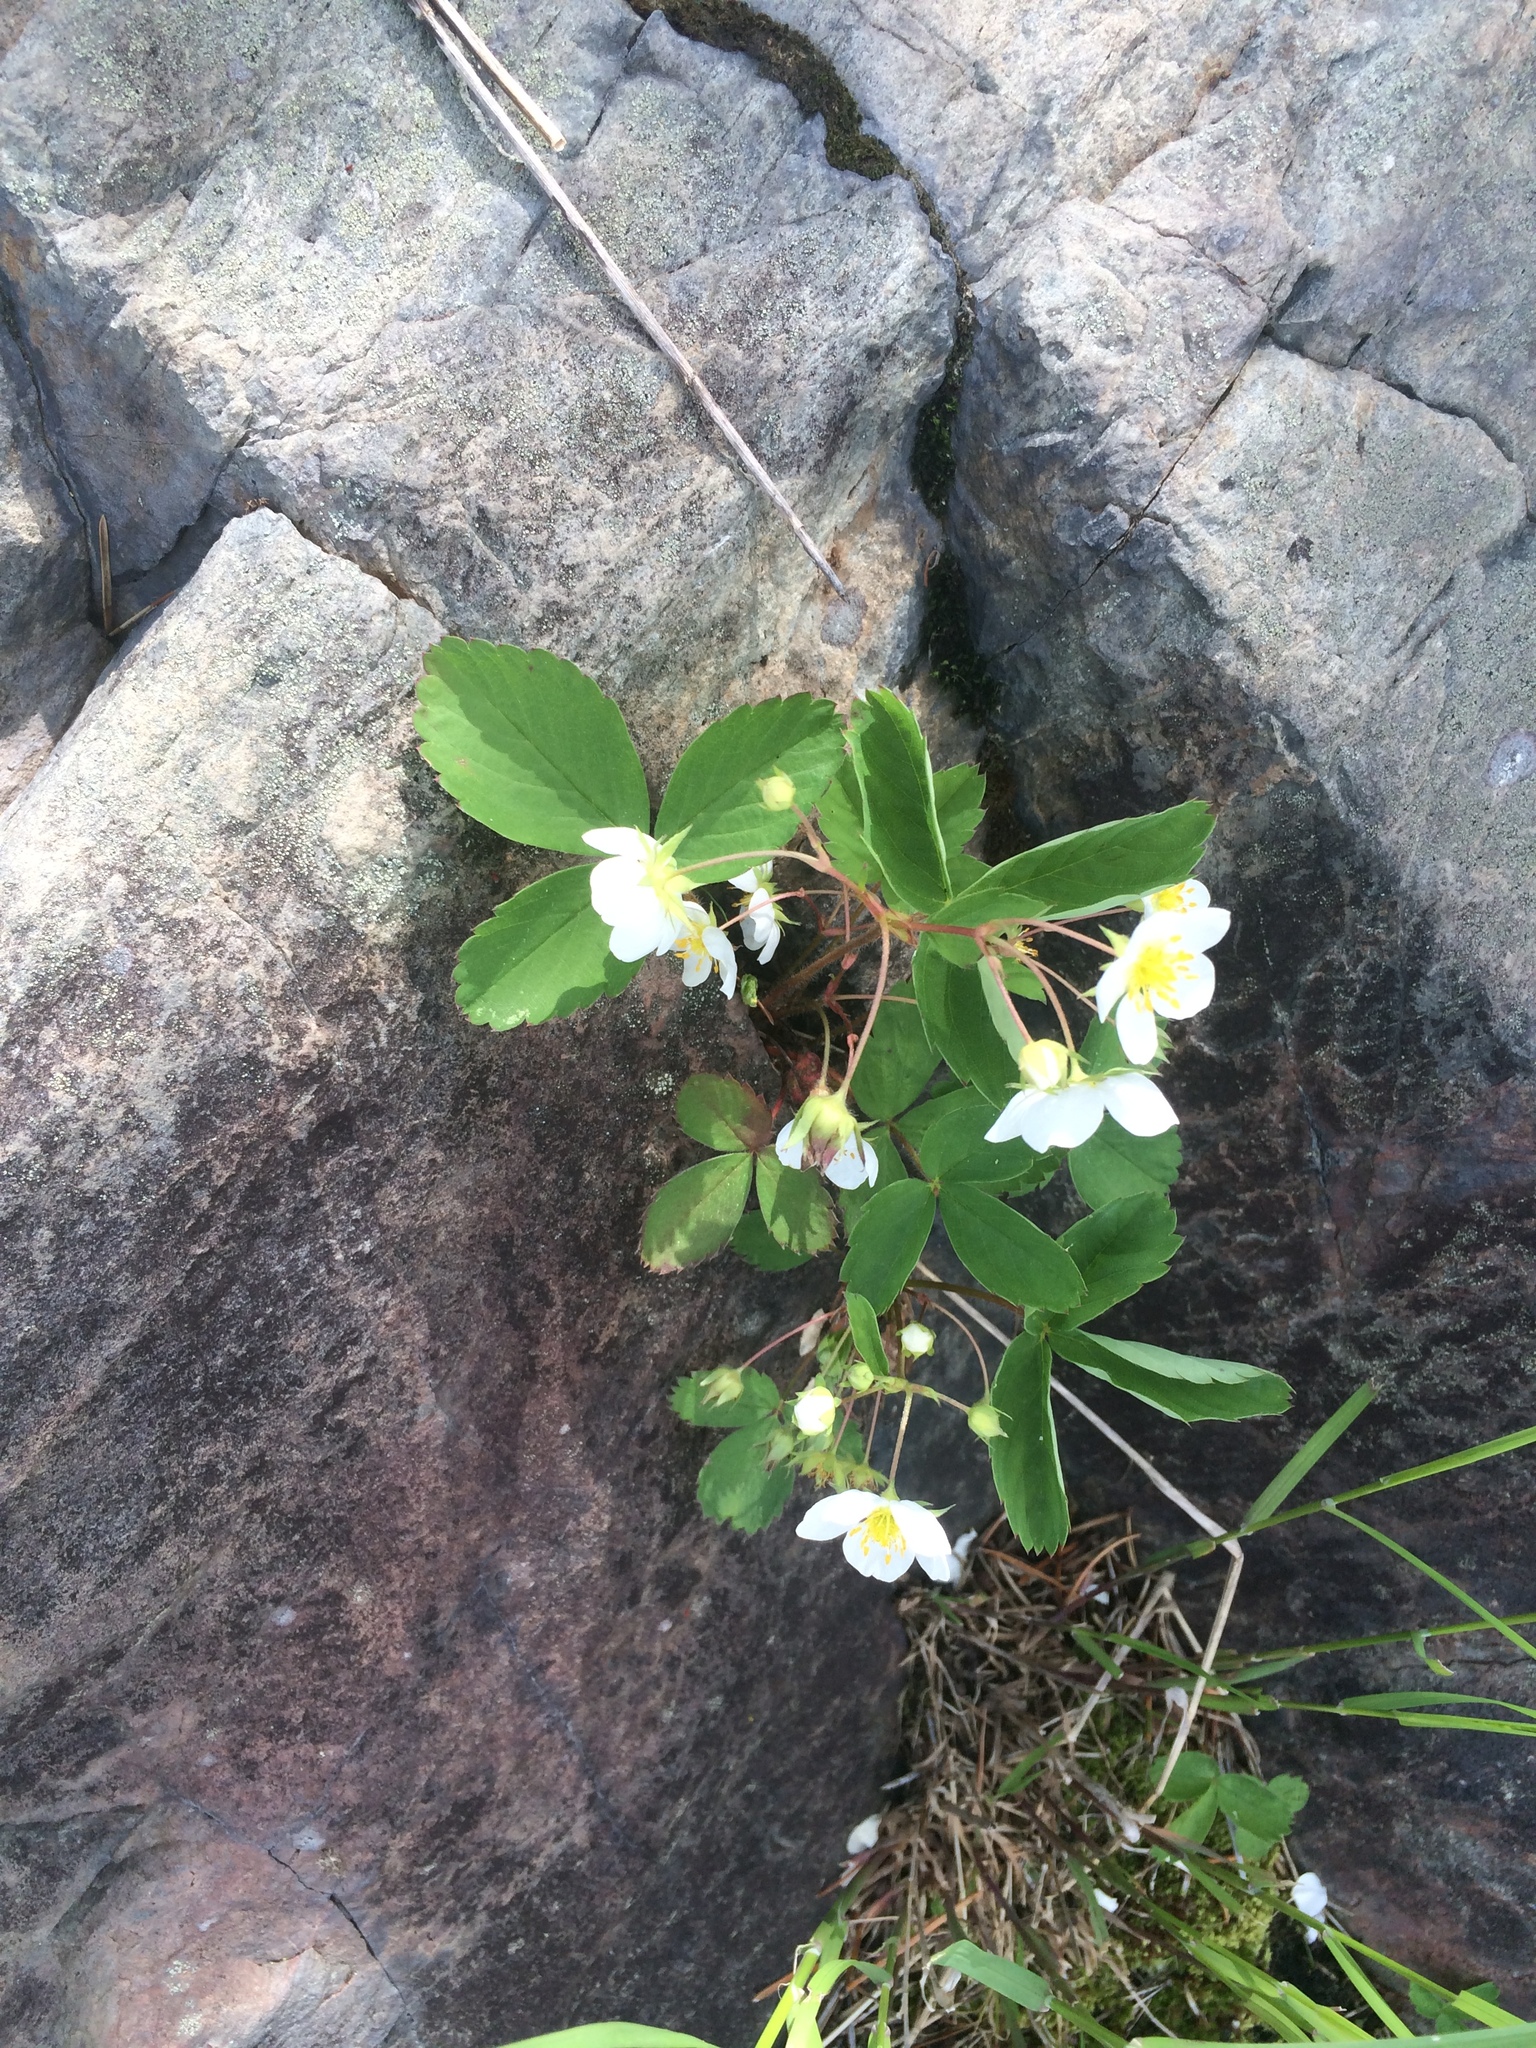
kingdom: Plantae
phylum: Tracheophyta
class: Magnoliopsida
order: Rosales
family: Rosaceae
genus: Fragaria
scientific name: Fragaria virginiana
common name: Thickleaved wild strawberry
